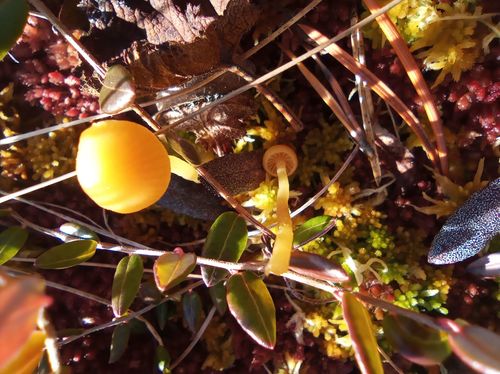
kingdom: Fungi
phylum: Basidiomycota
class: Agaricomycetes
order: Agaricales
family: Hymenogastraceae
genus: Galerina
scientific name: Galerina hypnorum
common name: Moss bell
